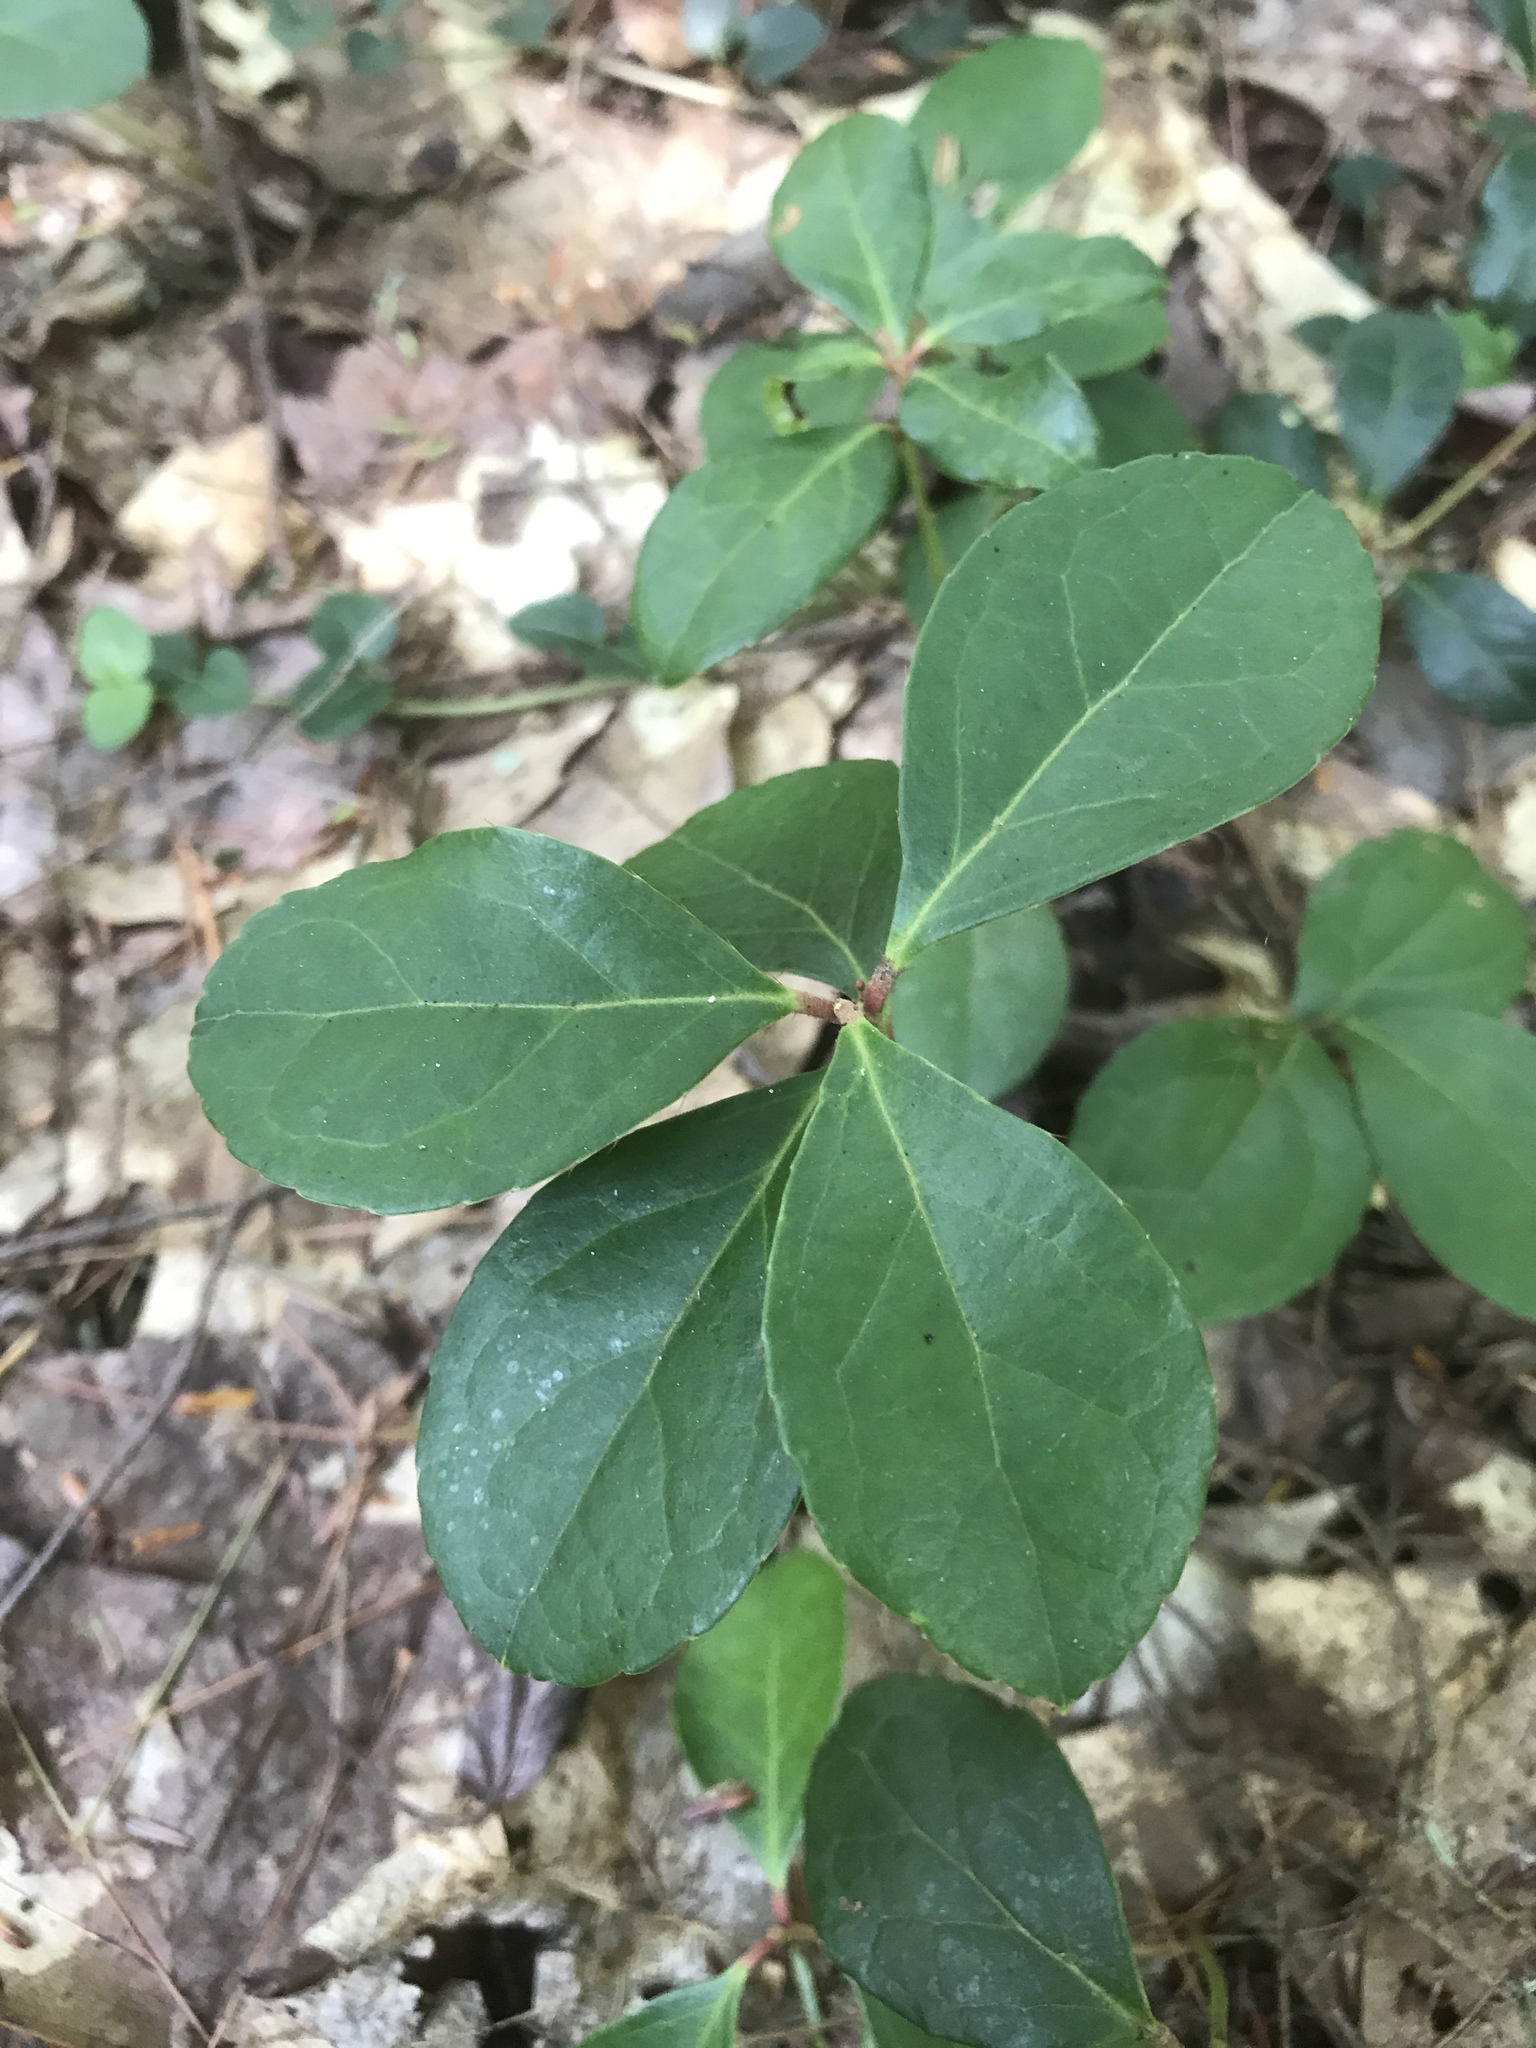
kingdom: Plantae
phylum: Tracheophyta
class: Magnoliopsida
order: Ericales
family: Ericaceae
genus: Gaultheria
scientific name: Gaultheria procumbens
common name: Checkerberry
